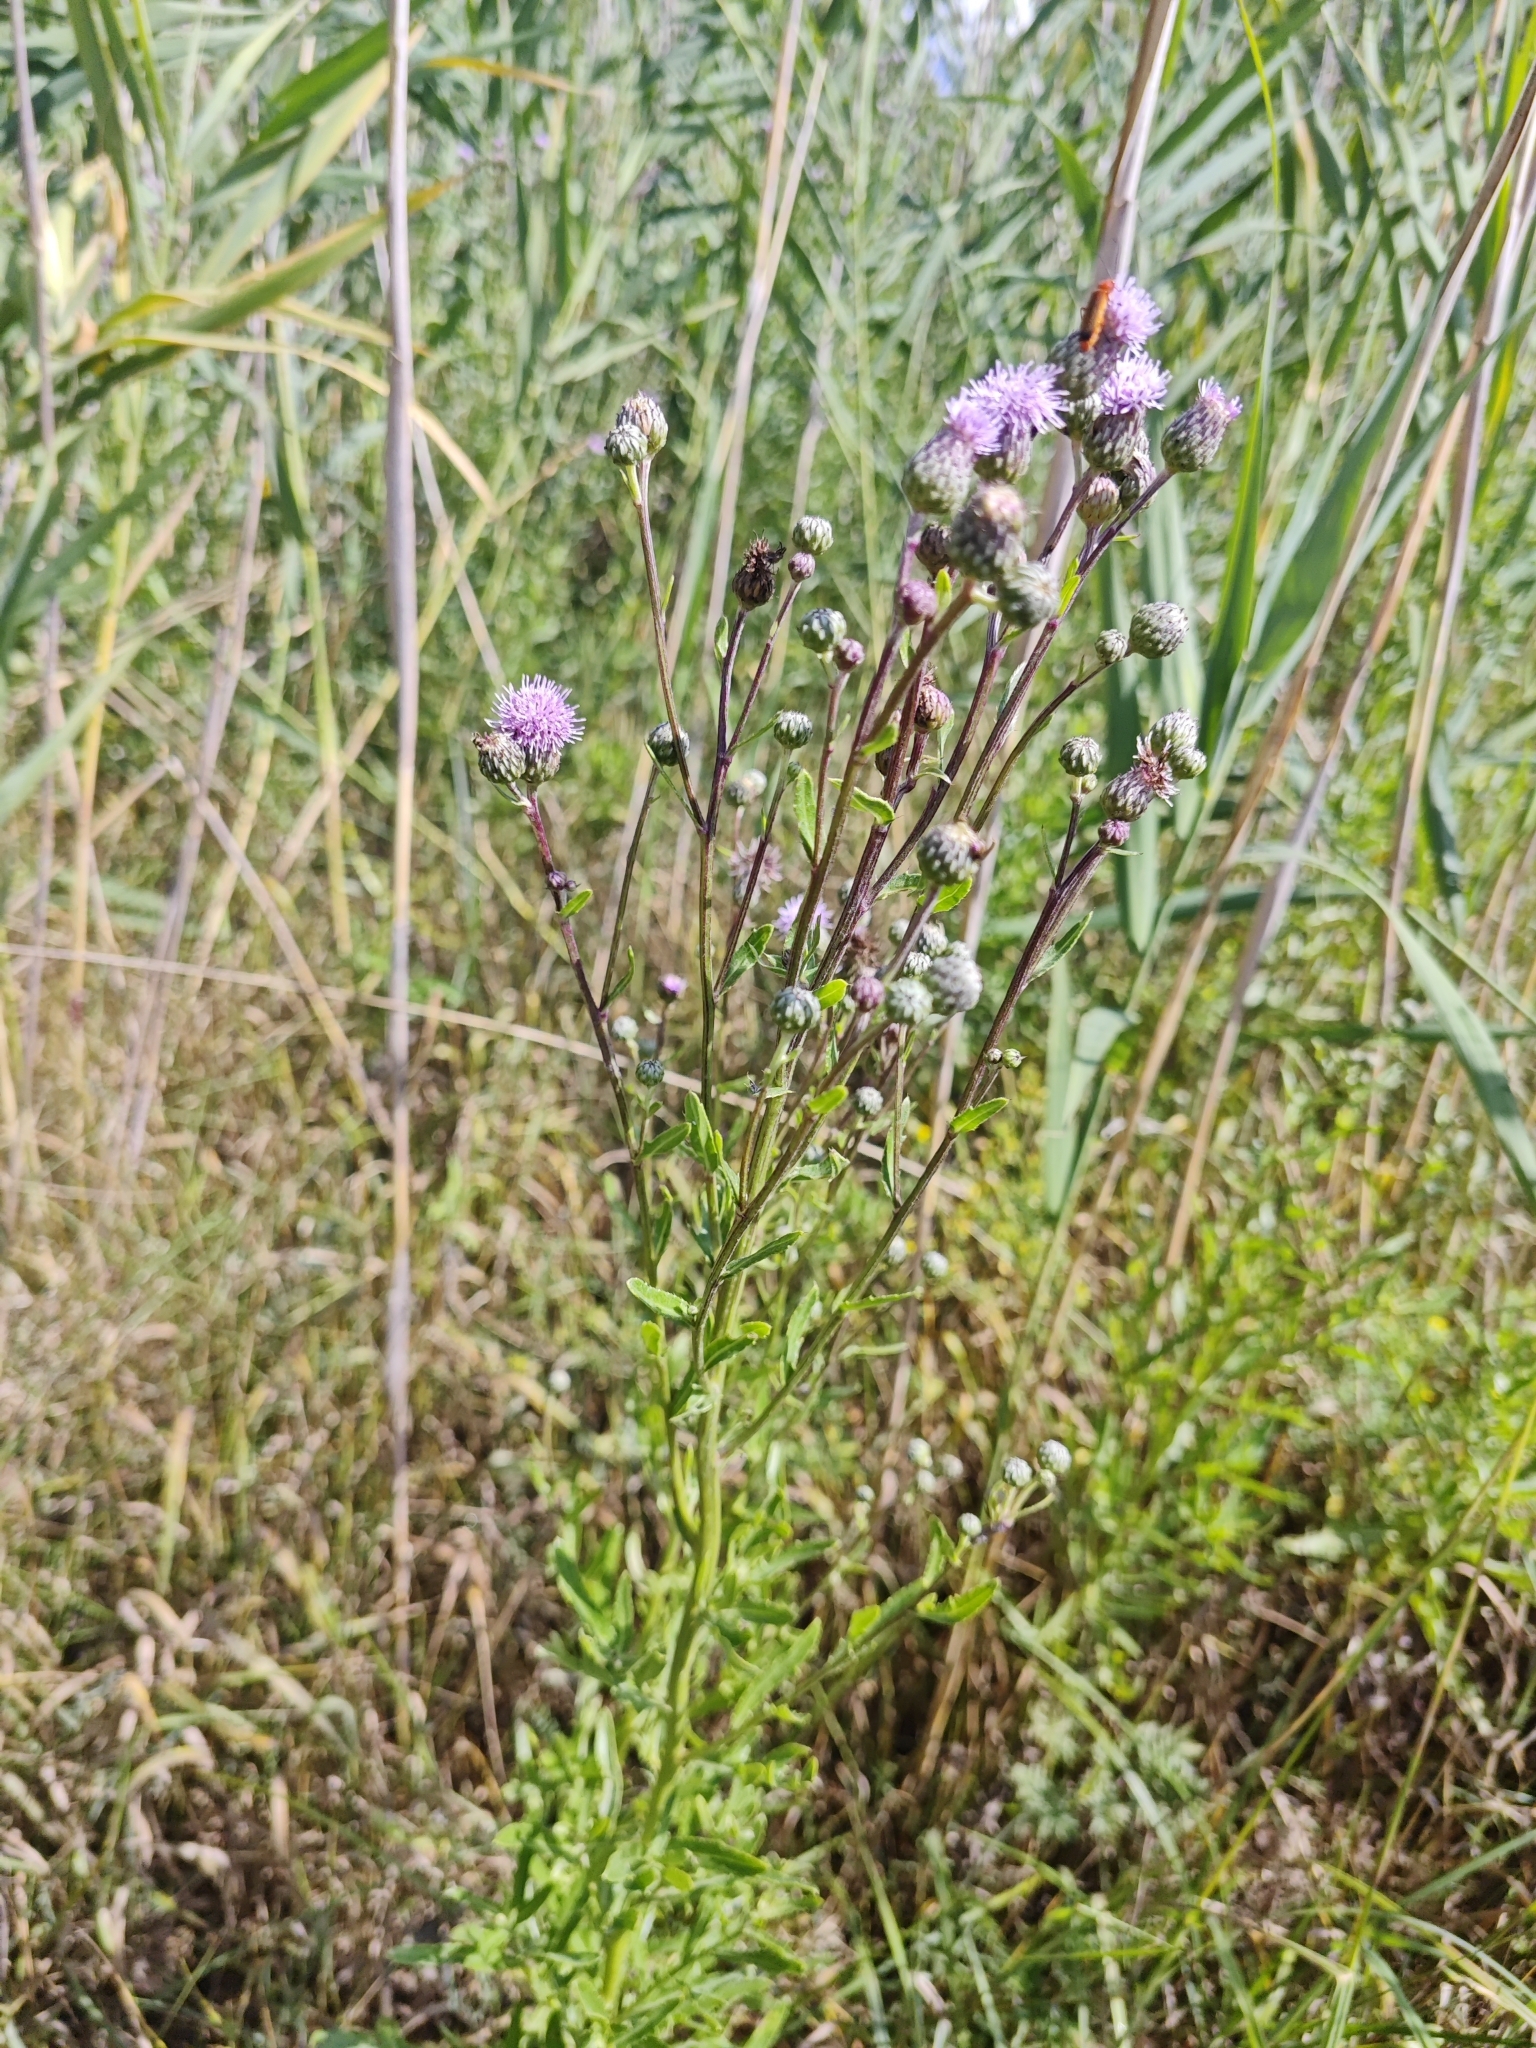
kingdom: Plantae
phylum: Tracheophyta
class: Magnoliopsida
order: Asterales
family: Asteraceae
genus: Cirsium
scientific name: Cirsium arvense
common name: Creeping thistle
